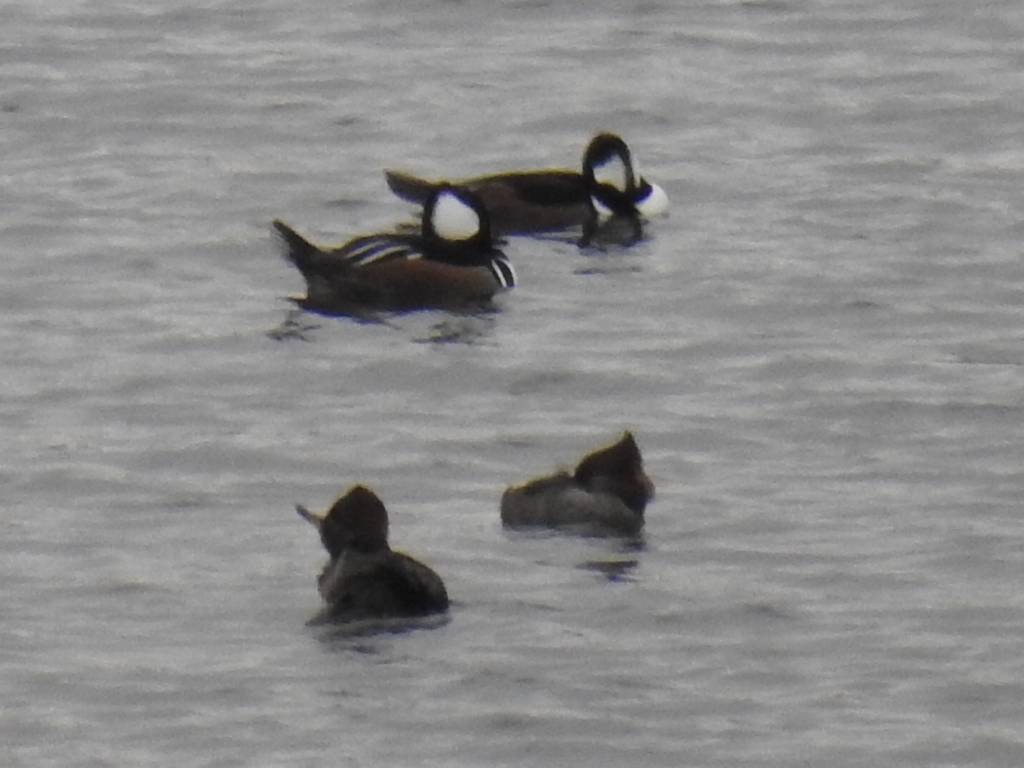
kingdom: Animalia
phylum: Chordata
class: Aves
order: Anseriformes
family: Anatidae
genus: Lophodytes
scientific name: Lophodytes cucullatus
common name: Hooded merganser
